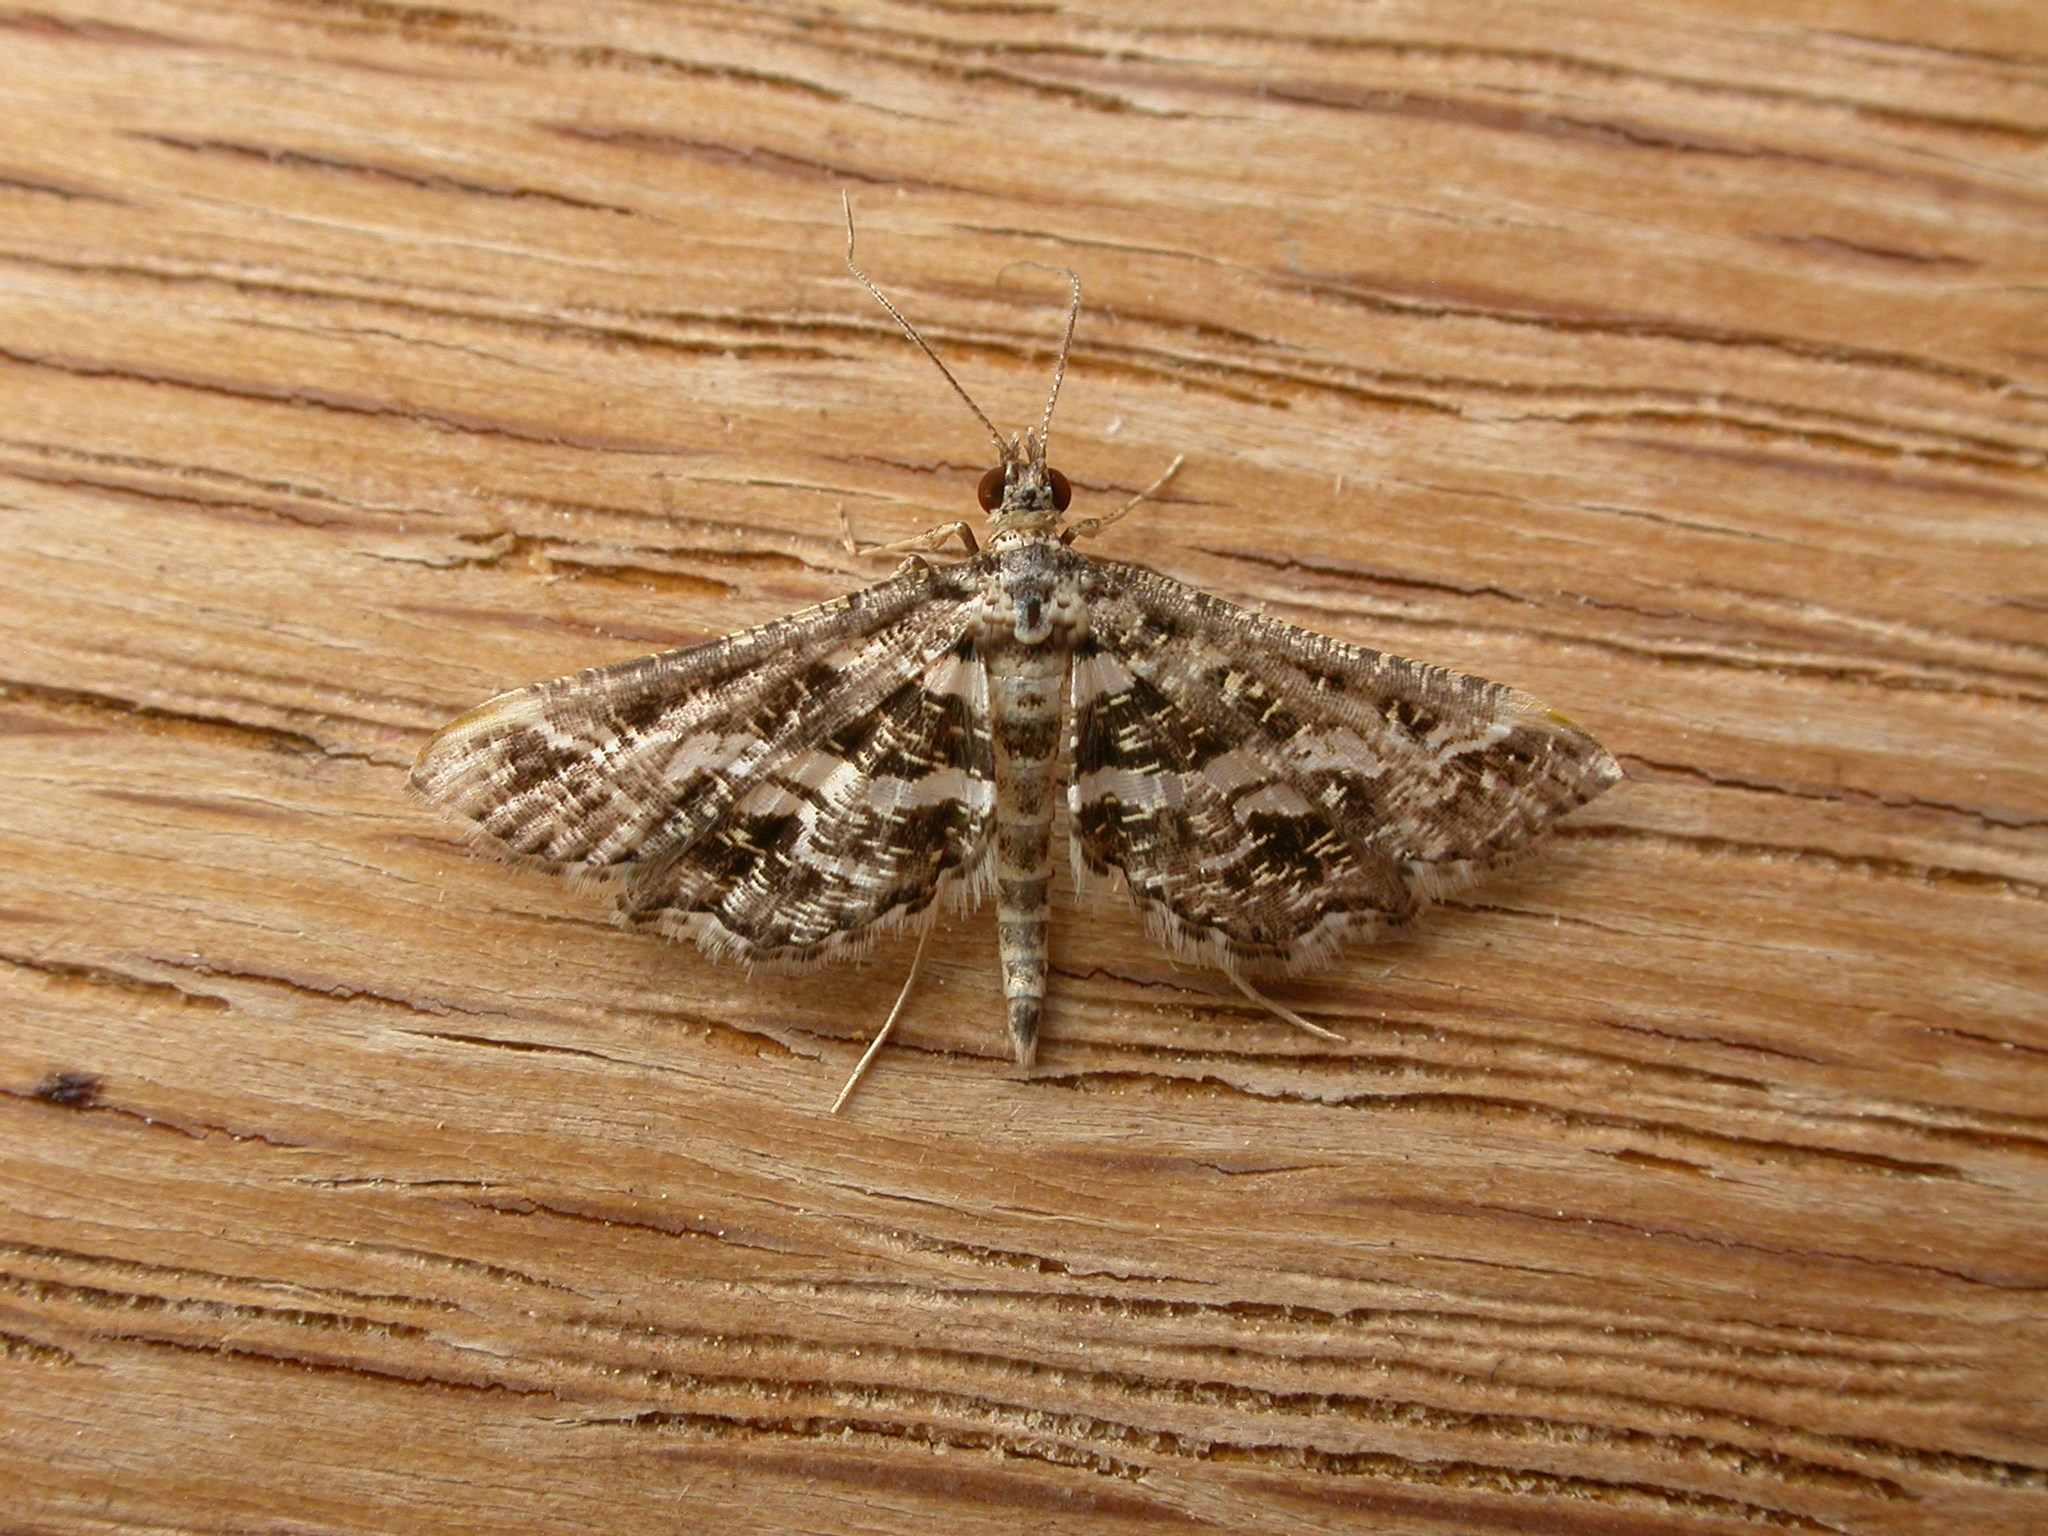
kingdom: Animalia
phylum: Arthropoda
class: Insecta
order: Lepidoptera
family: Crambidae
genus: Diasemiopsis
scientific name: Diasemiopsis ramburialis
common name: Vagrant china-mark
